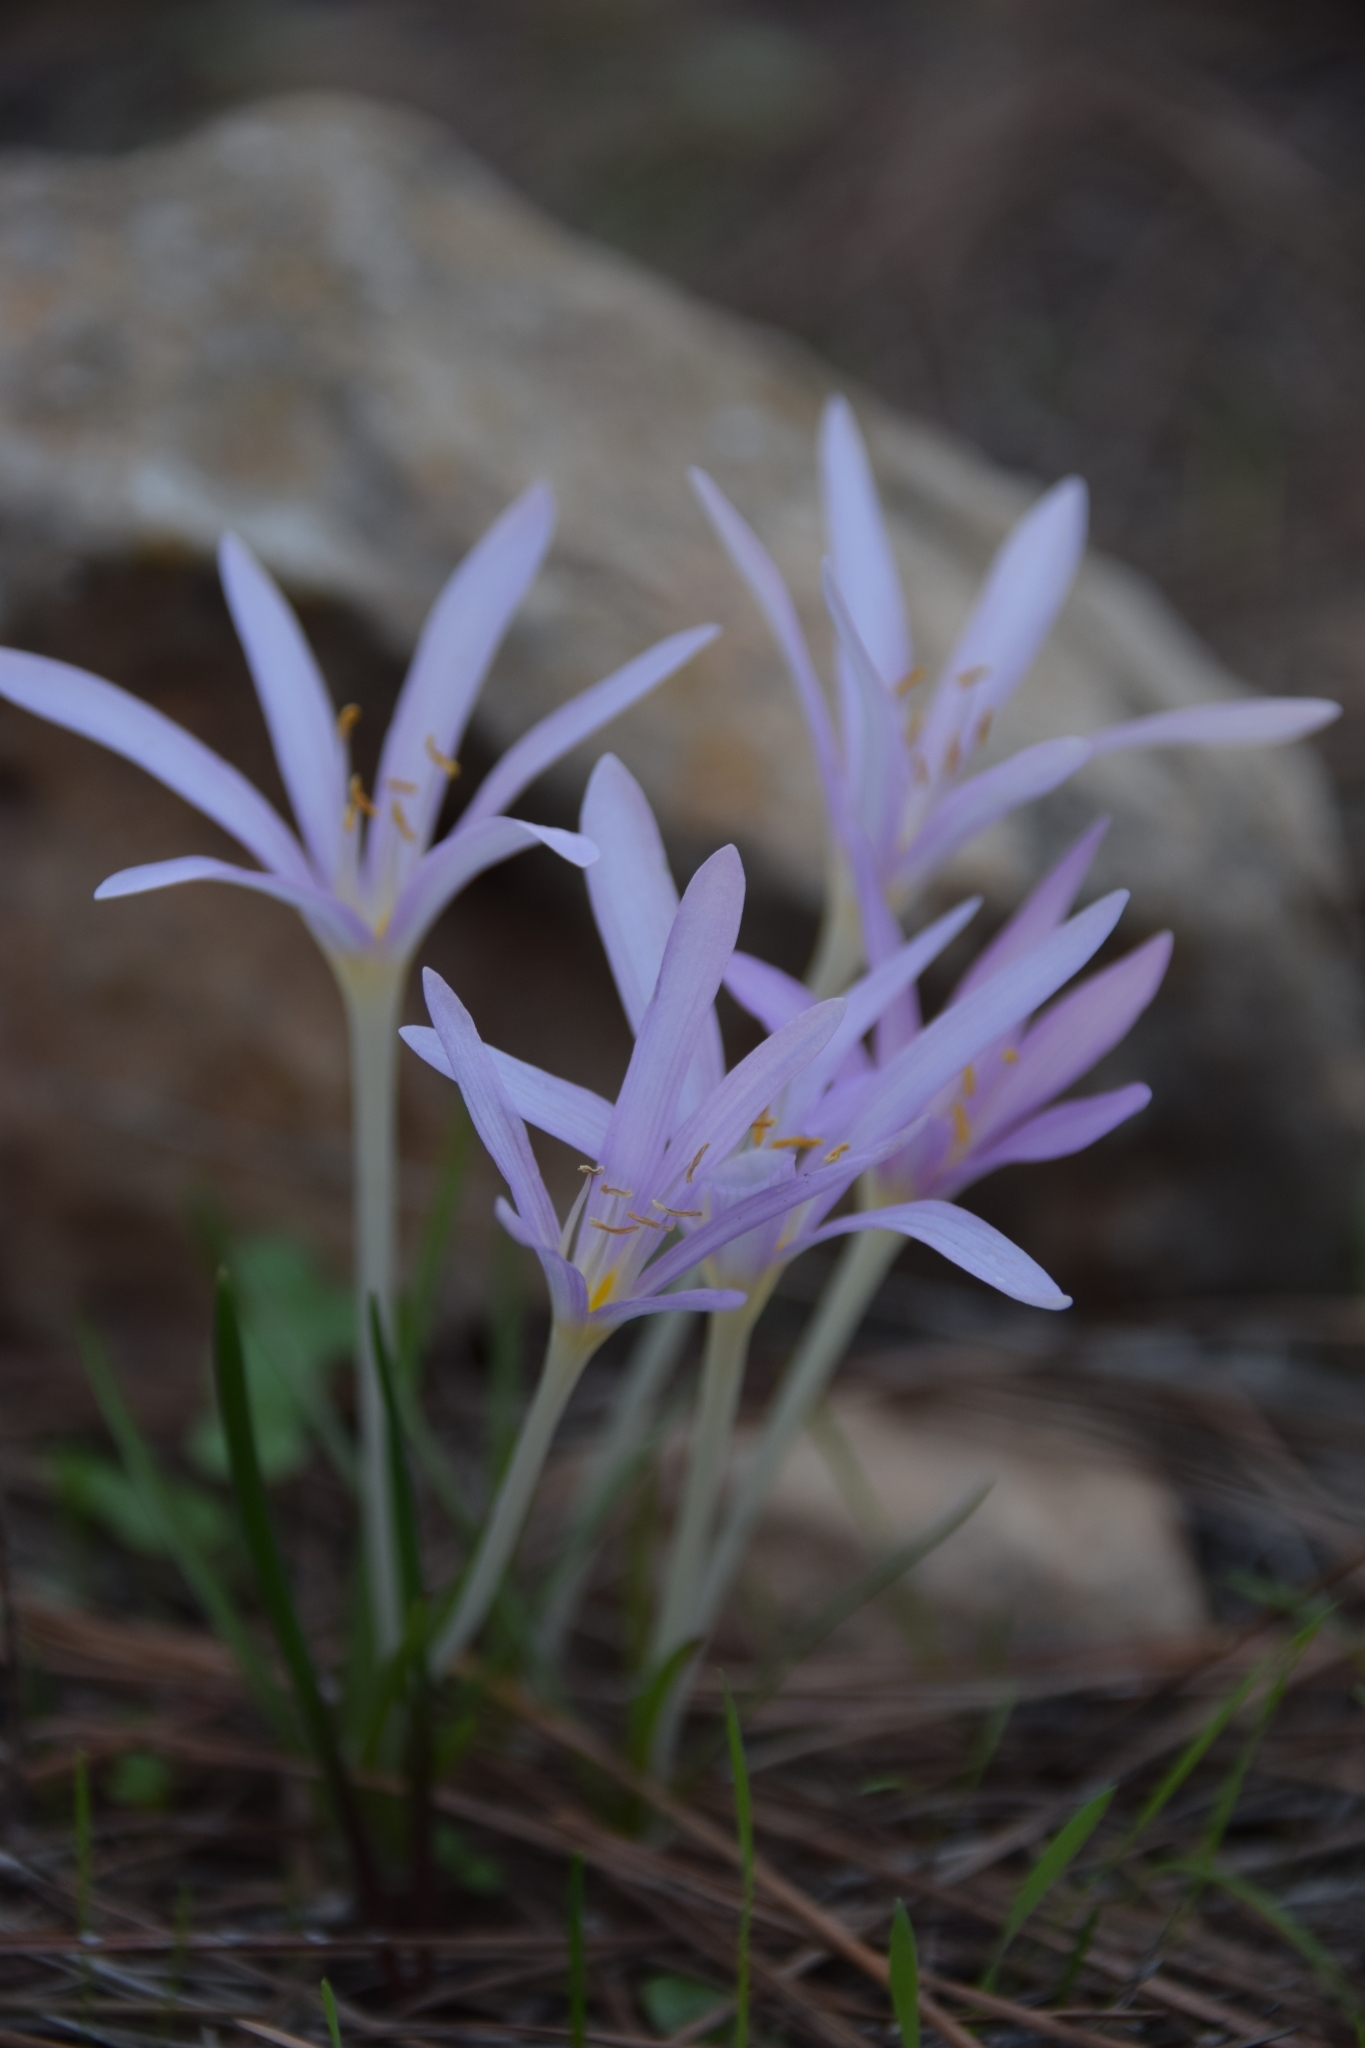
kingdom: Plantae
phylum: Tracheophyta
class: Liliopsida
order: Liliales
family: Colchicaceae
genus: Colchicum
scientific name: Colchicum stevenii
